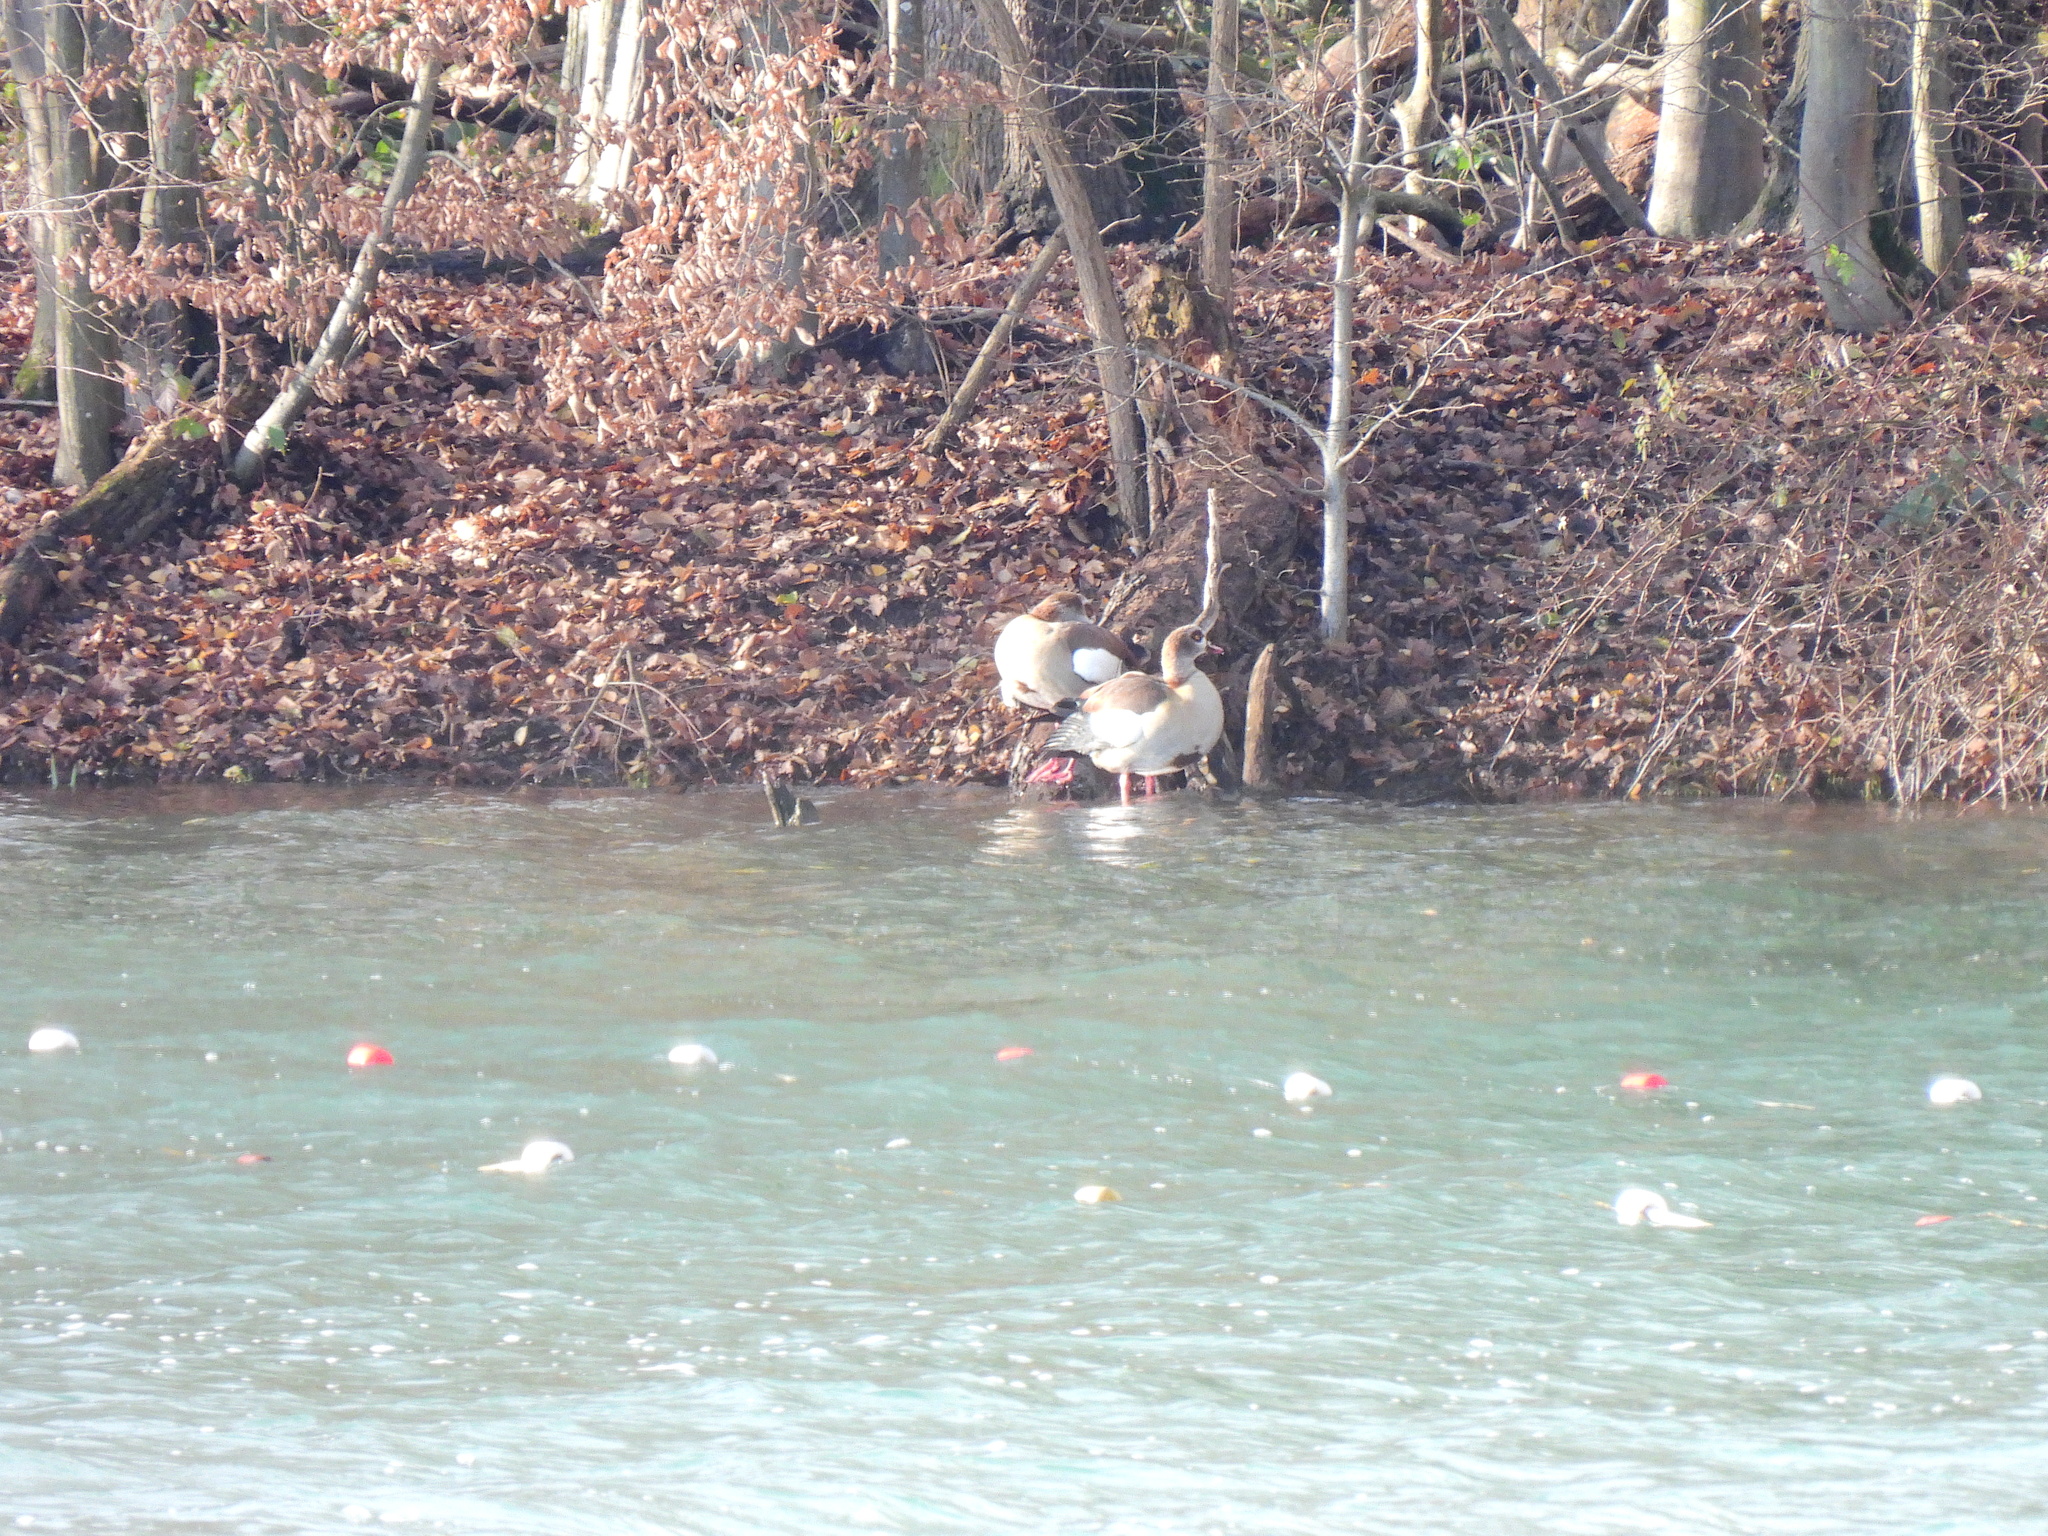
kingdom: Animalia
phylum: Chordata
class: Aves
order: Anseriformes
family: Anatidae
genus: Alopochen
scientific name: Alopochen aegyptiaca
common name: Egyptian goose
